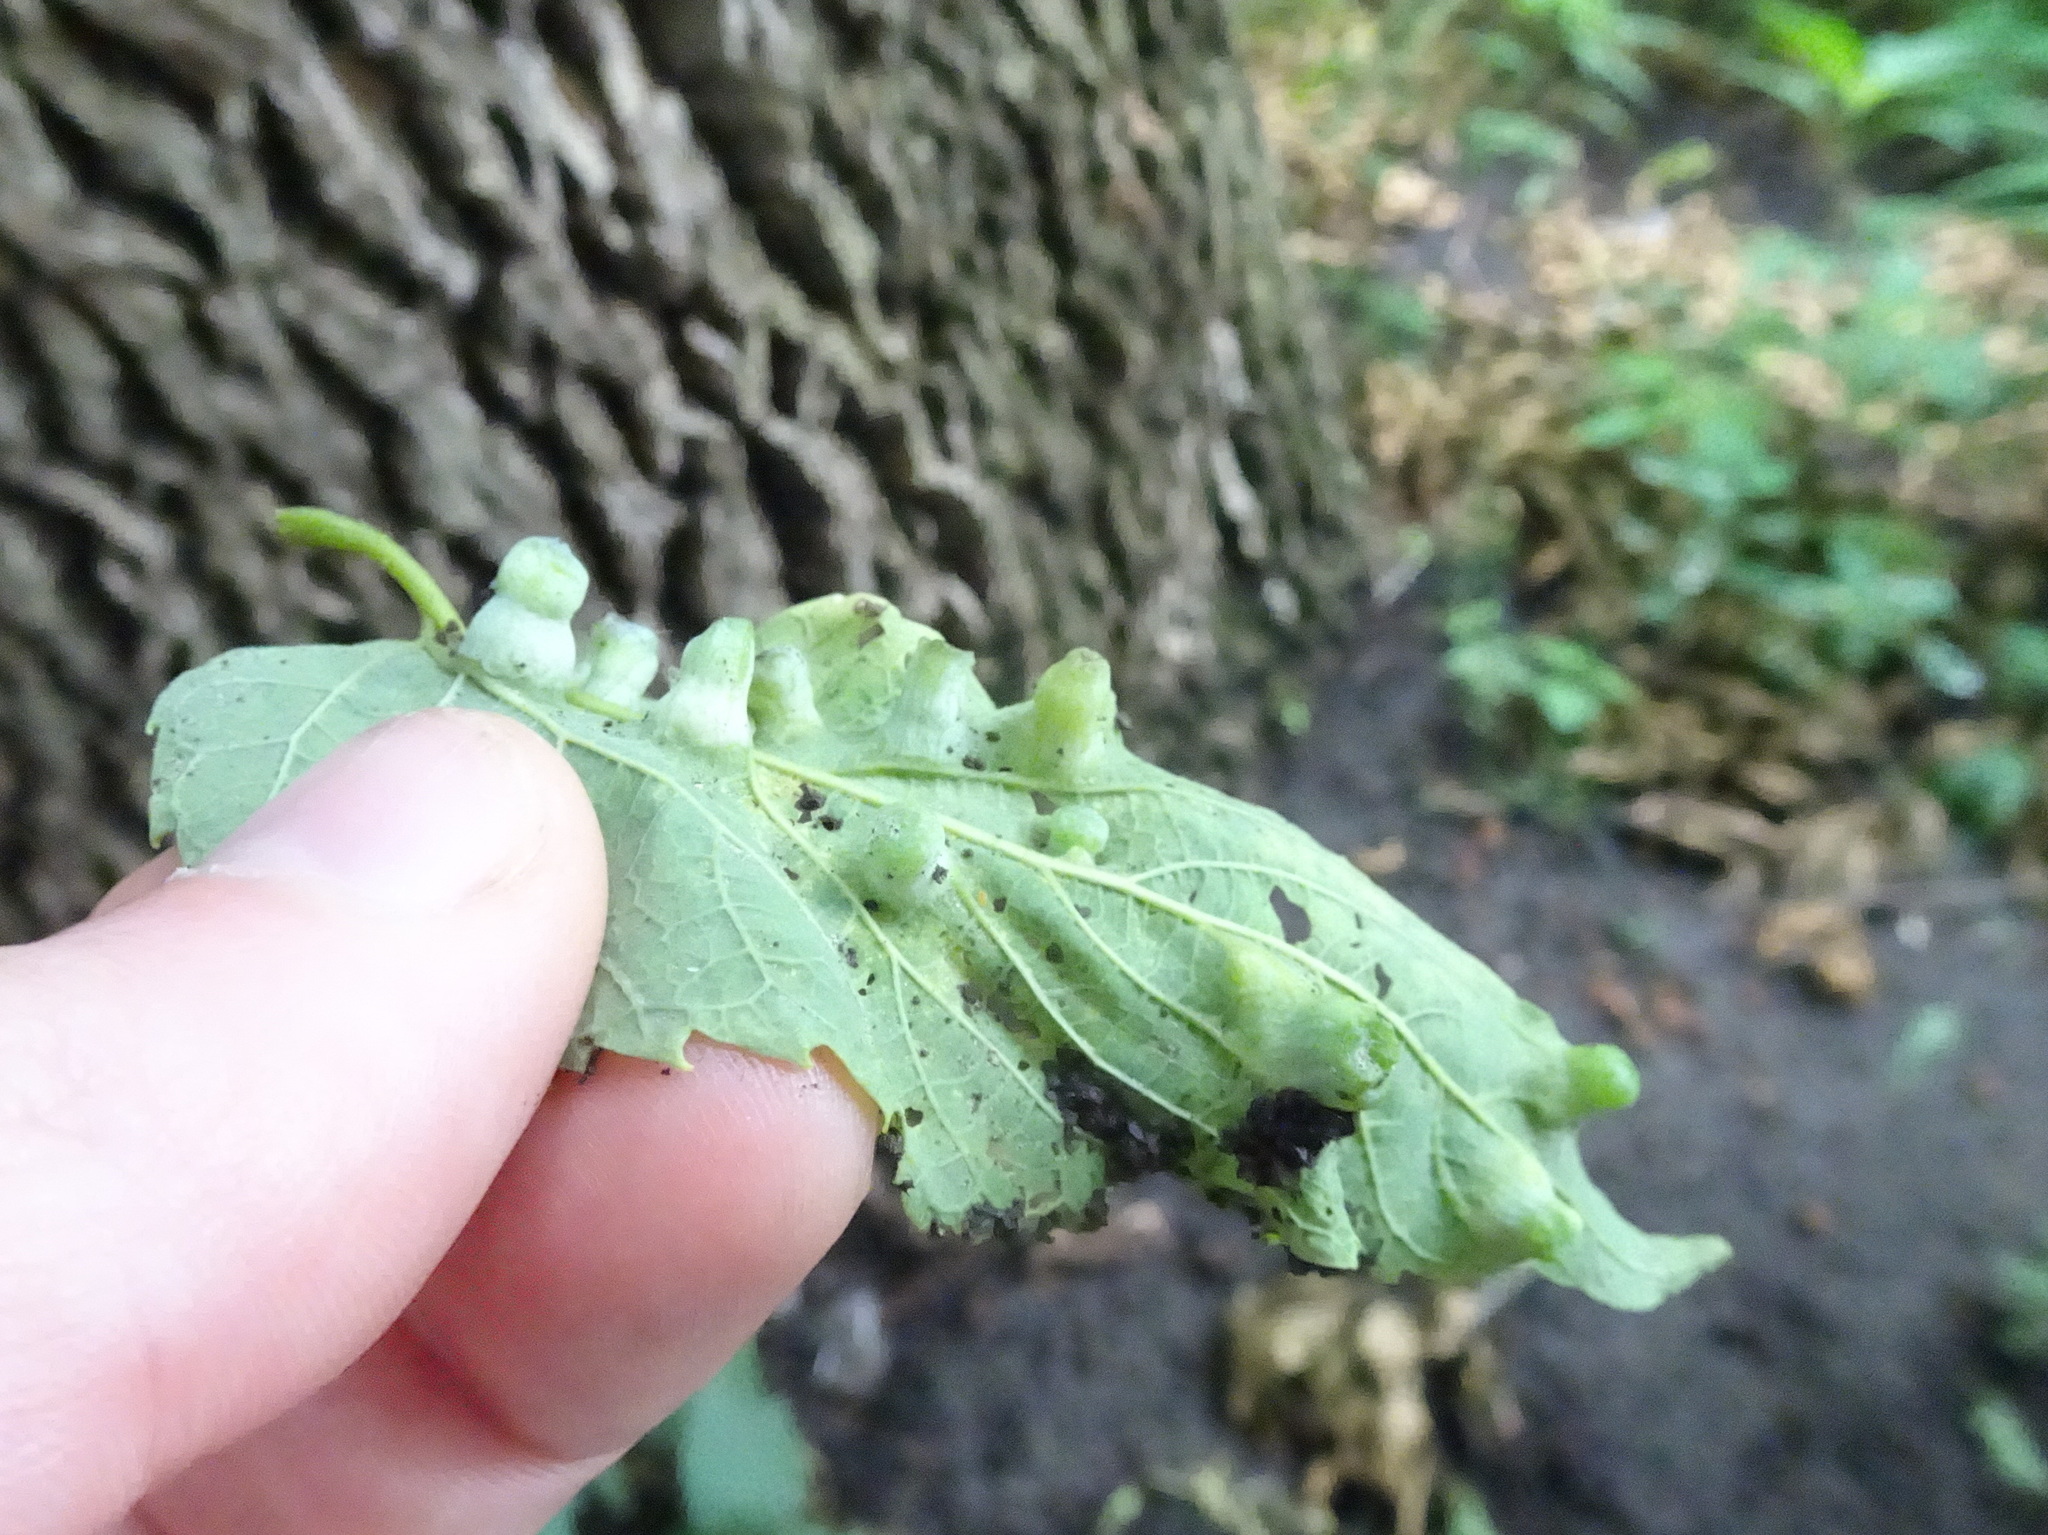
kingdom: Animalia
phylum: Arthropoda
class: Insecta
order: Hemiptera
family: Aphalaridae
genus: Pachypsylla
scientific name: Pachypsylla celtidismamma
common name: Hackberry nipplegall psyllid
